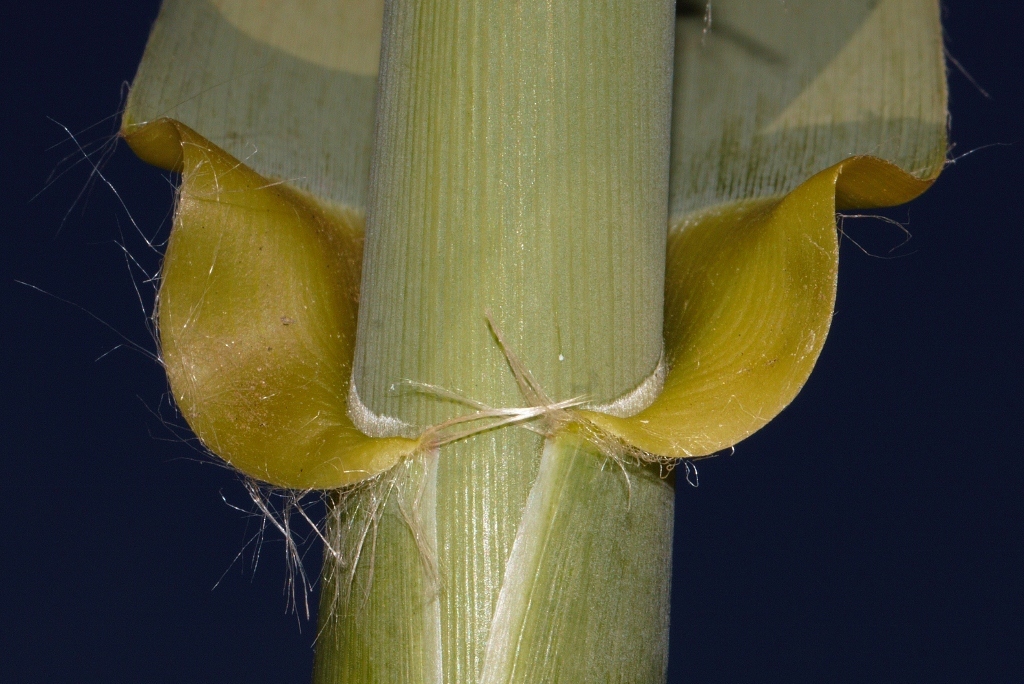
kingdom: Plantae
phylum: Tracheophyta
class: Liliopsida
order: Poales
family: Poaceae
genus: Arundo
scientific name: Arundo donax
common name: Giant reed
